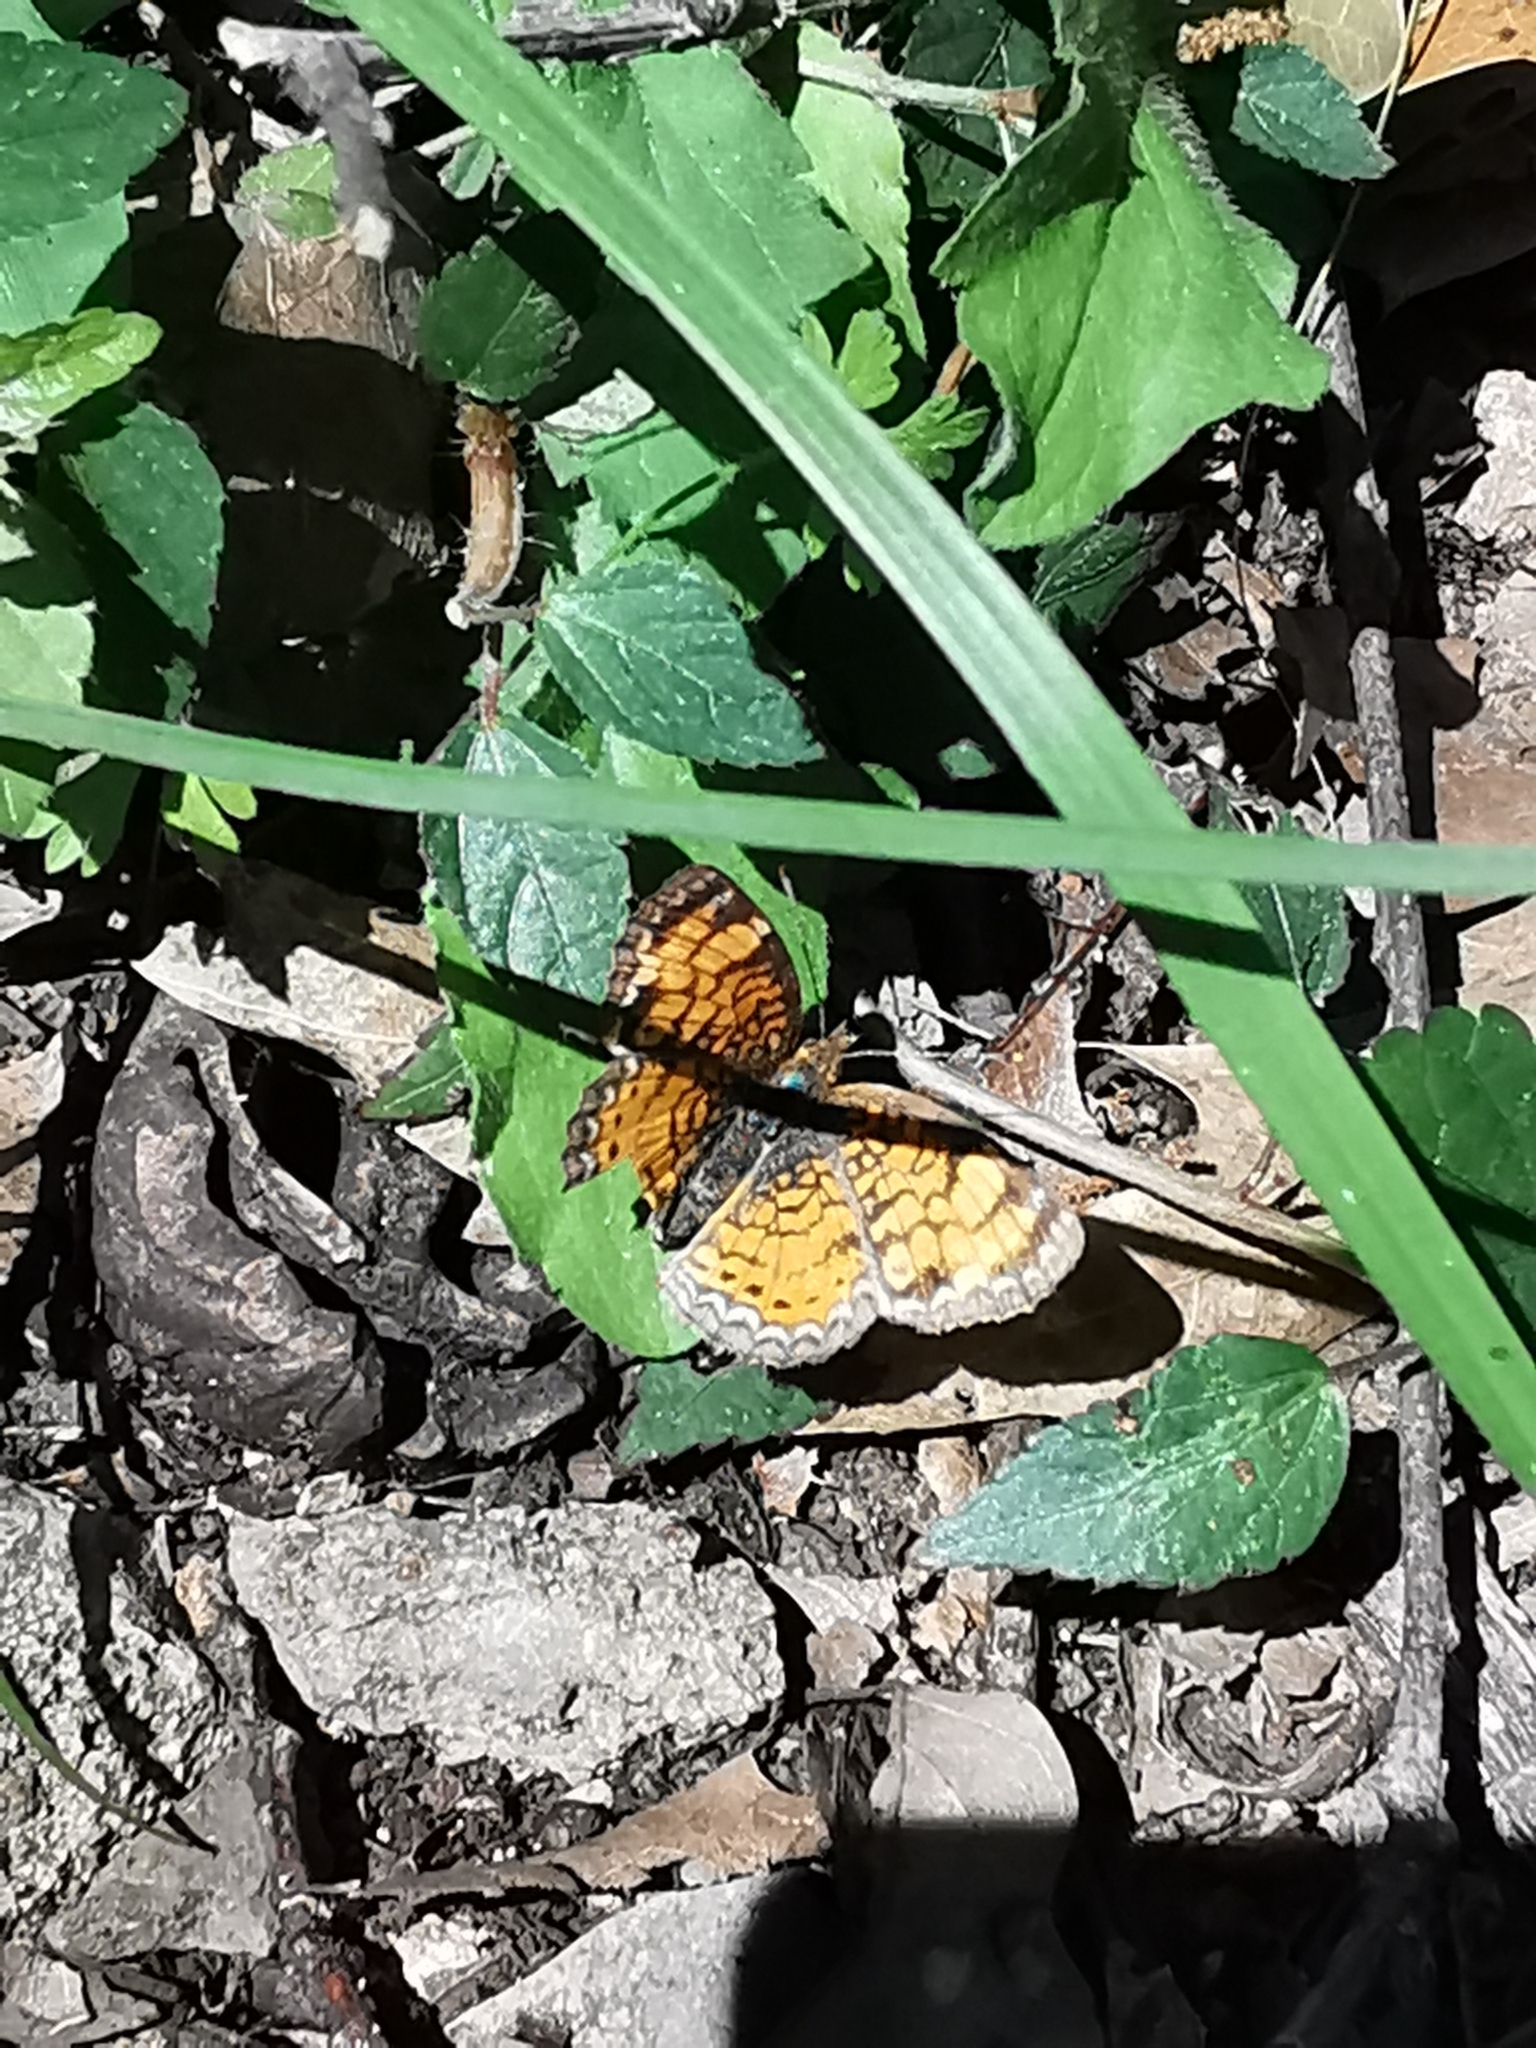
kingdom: Animalia
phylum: Arthropoda
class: Insecta
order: Lepidoptera
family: Nymphalidae
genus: Phyciodes
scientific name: Phyciodes tharos
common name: Pearl crescent
